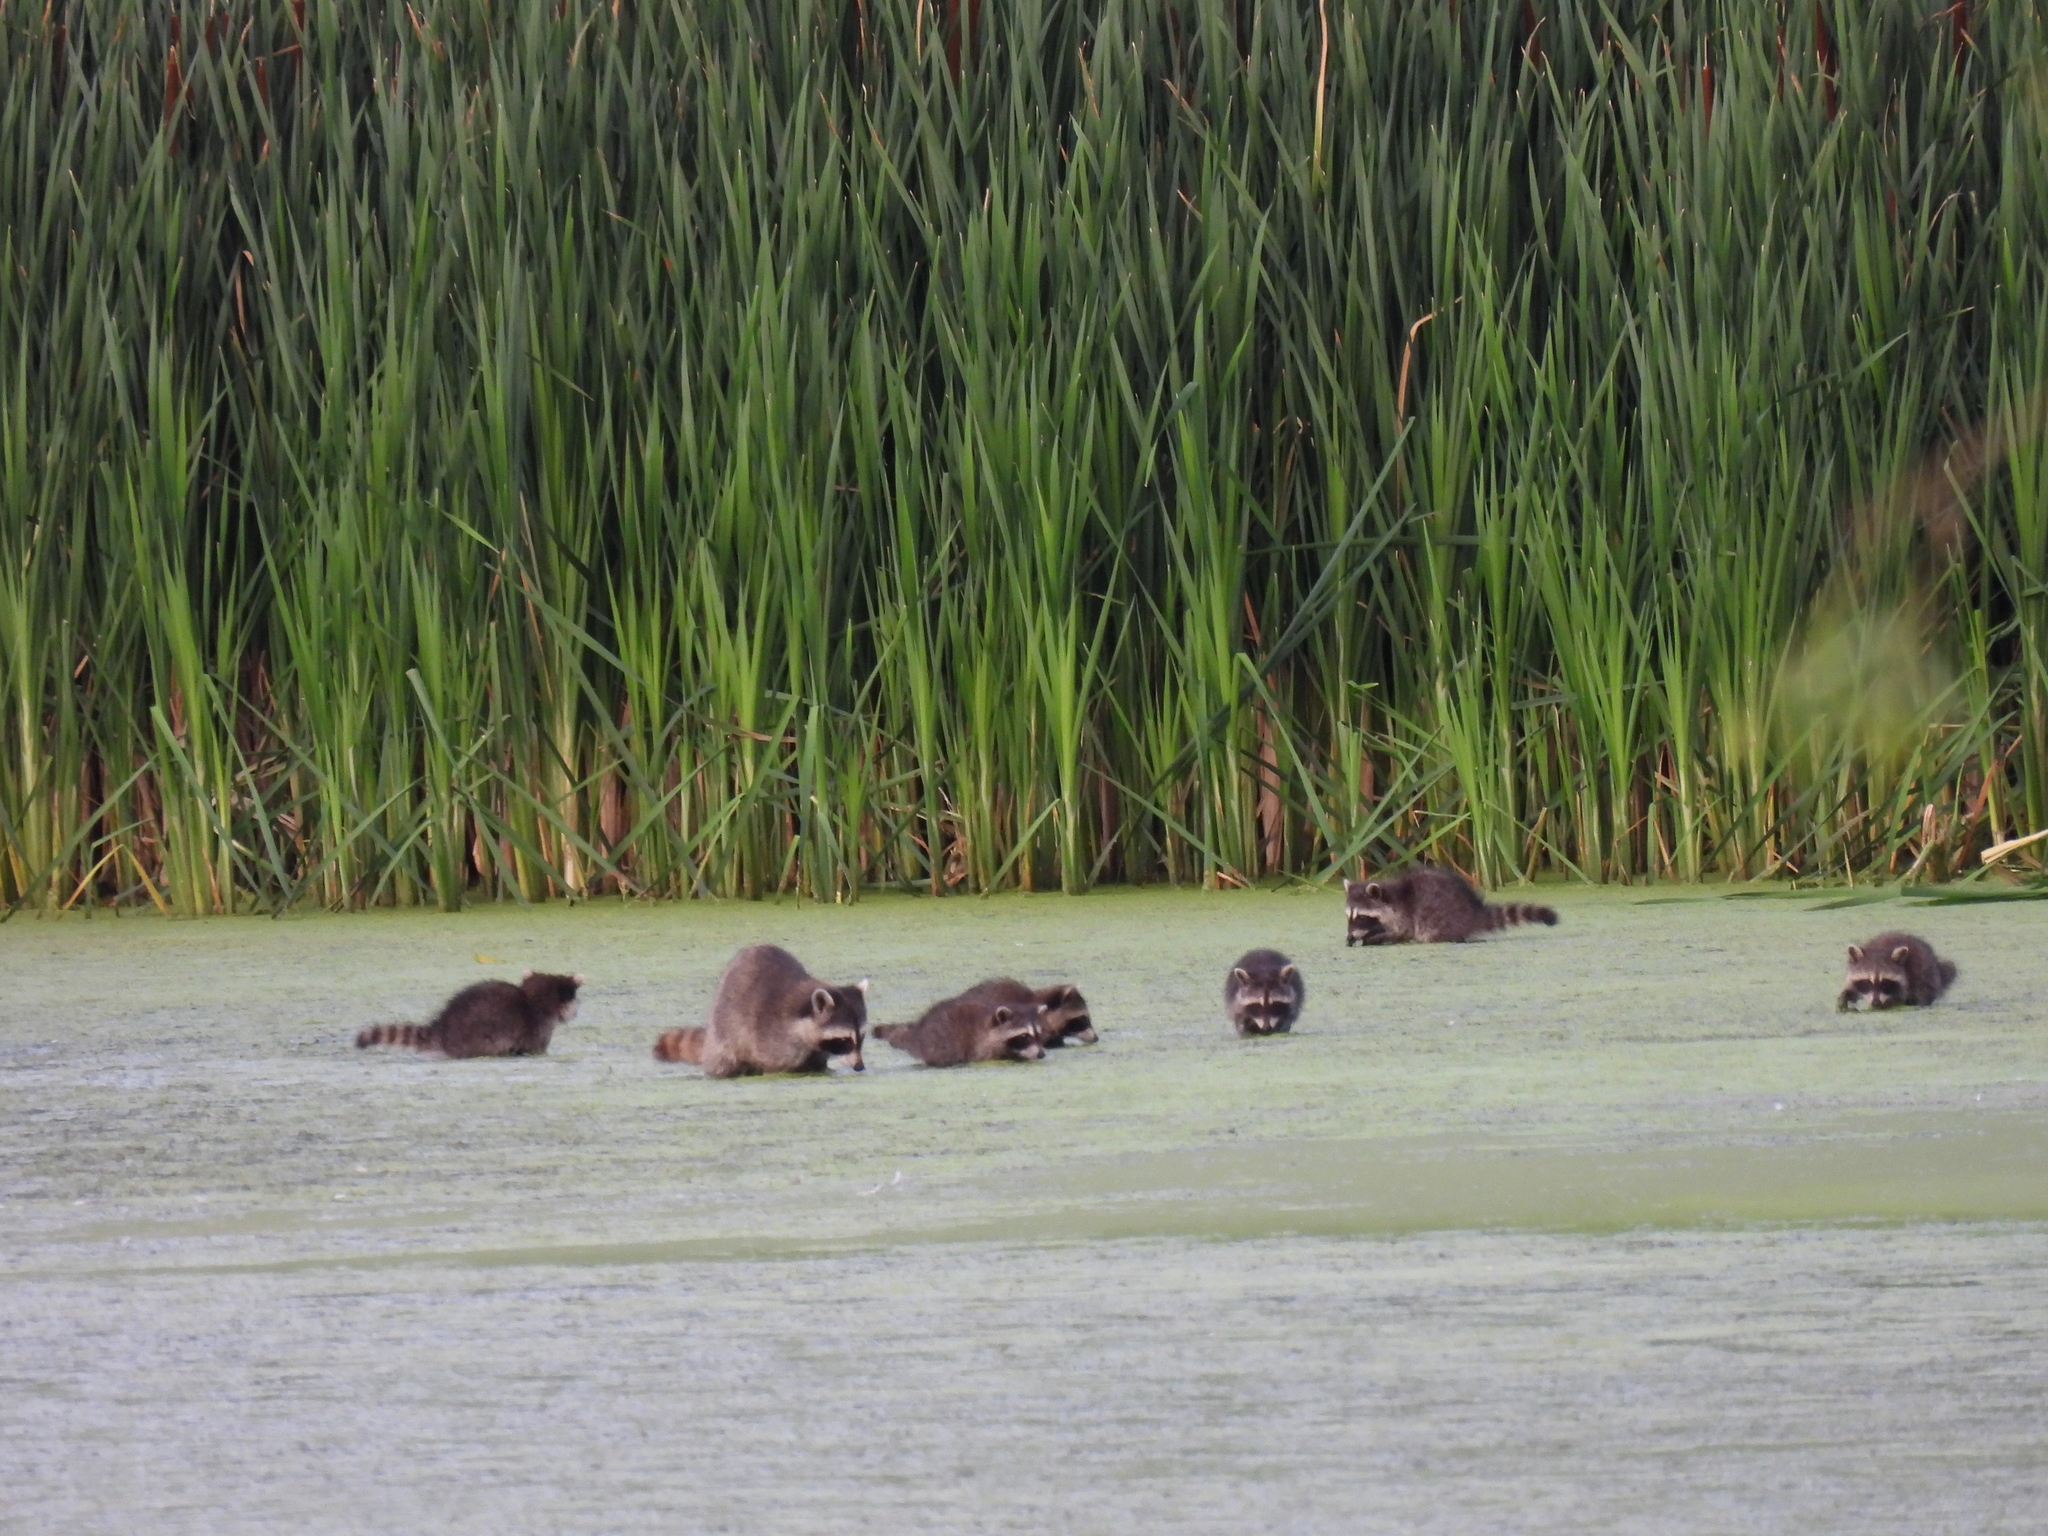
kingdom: Animalia
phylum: Chordata
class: Mammalia
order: Carnivora
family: Procyonidae
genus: Procyon
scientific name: Procyon lotor
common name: Raccoon
